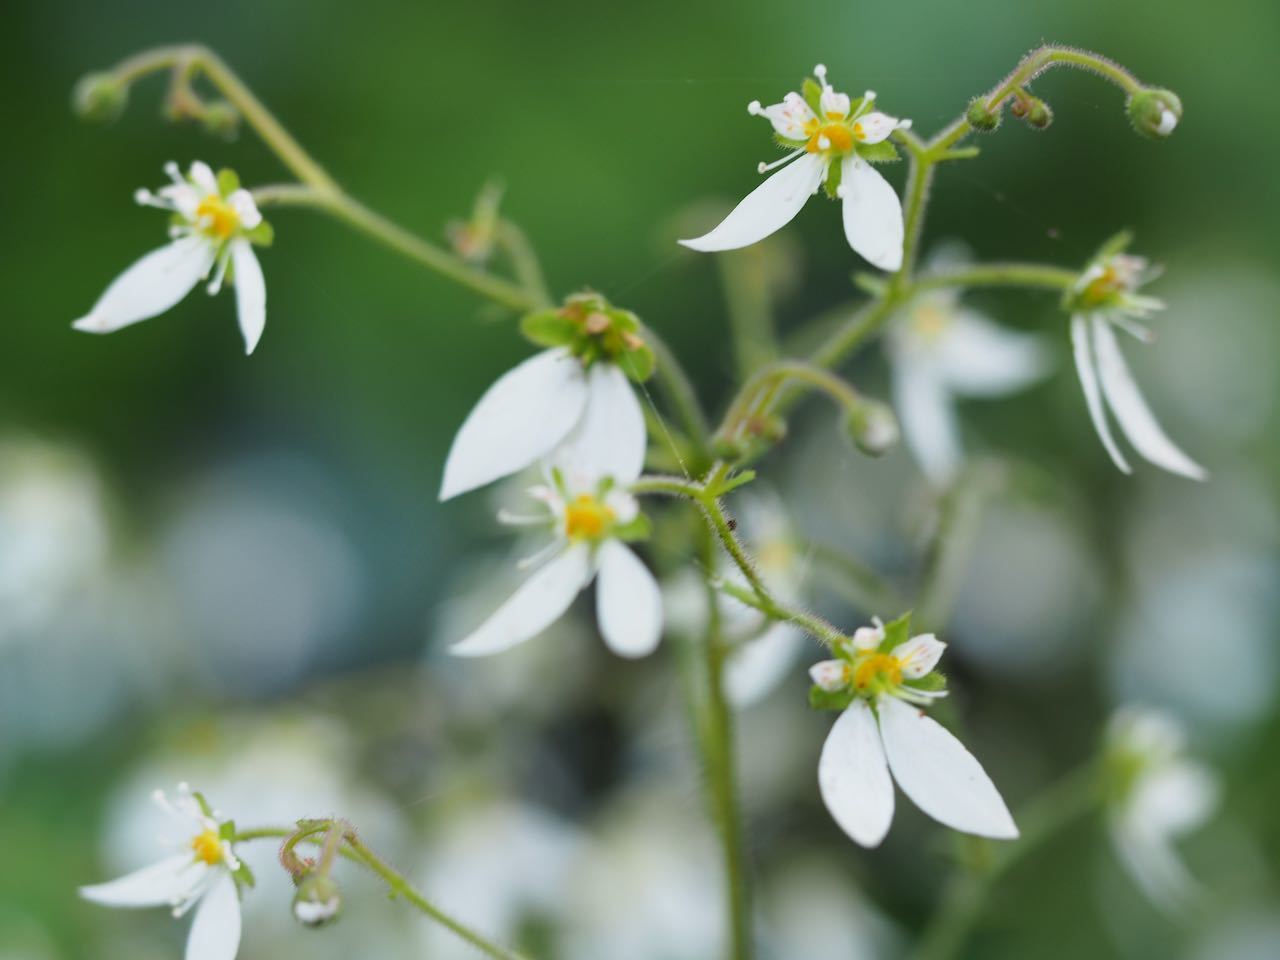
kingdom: Plantae
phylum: Tracheophyta
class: Magnoliopsida
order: Saxifragales
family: Saxifragaceae
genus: Saxifraga
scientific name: Saxifraga stolonifera
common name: Creeping saxifrage
